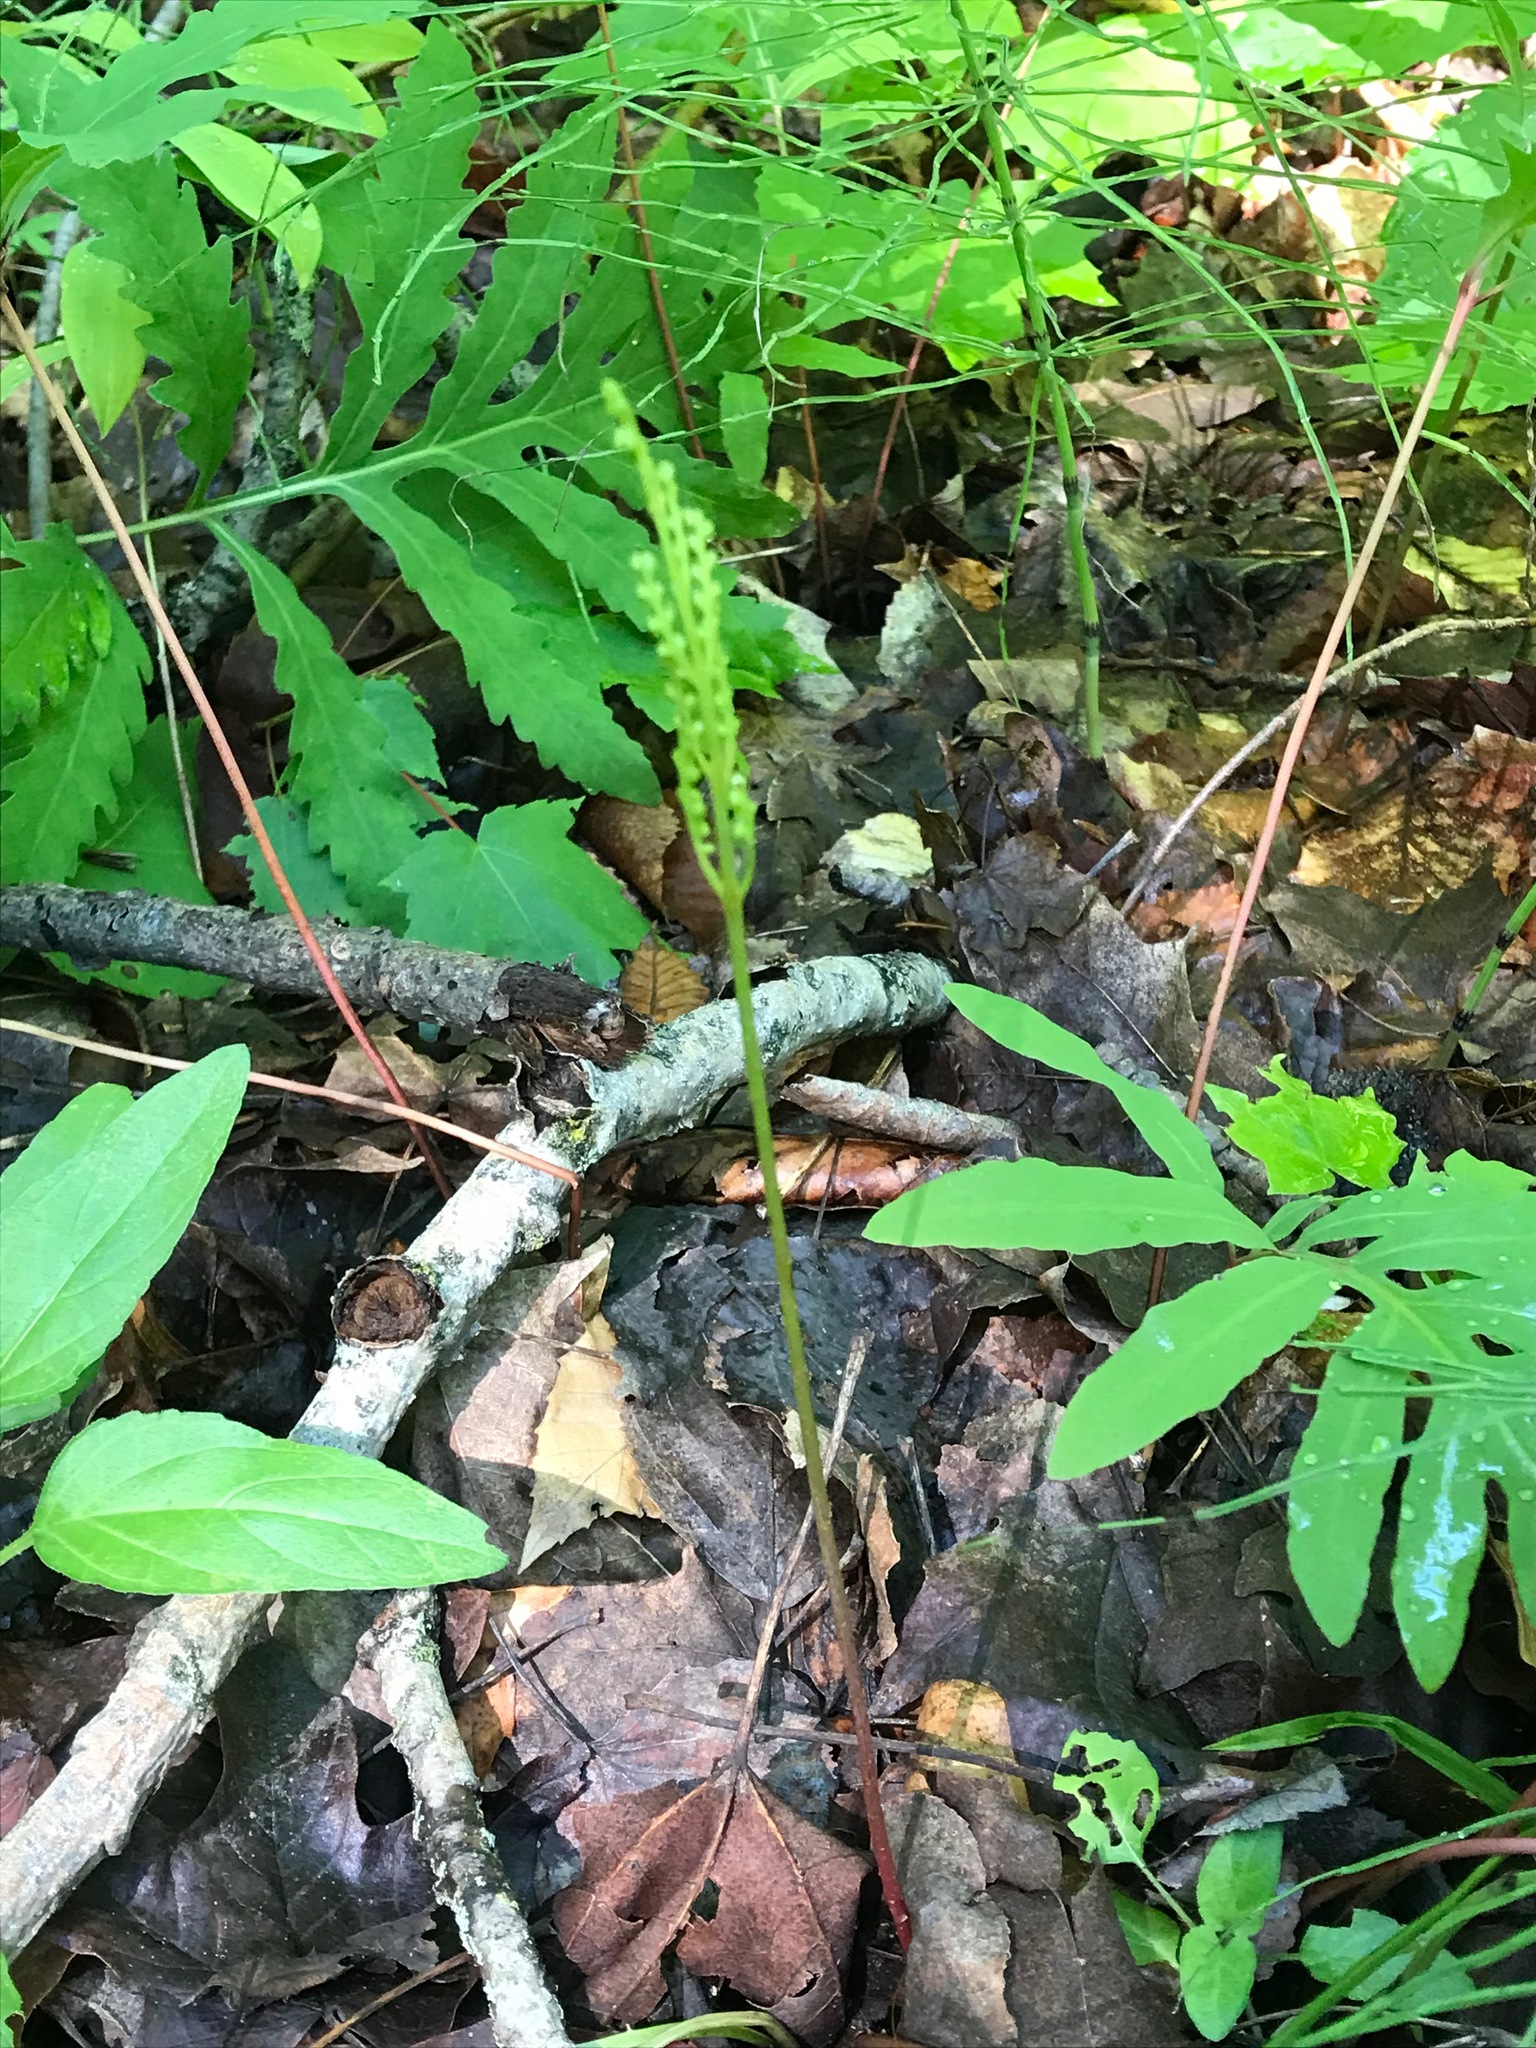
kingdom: Plantae
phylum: Tracheophyta
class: Polypodiopsida
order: Polypodiales
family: Onocleaceae
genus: Onoclea
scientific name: Onoclea sensibilis
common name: Sensitive fern
